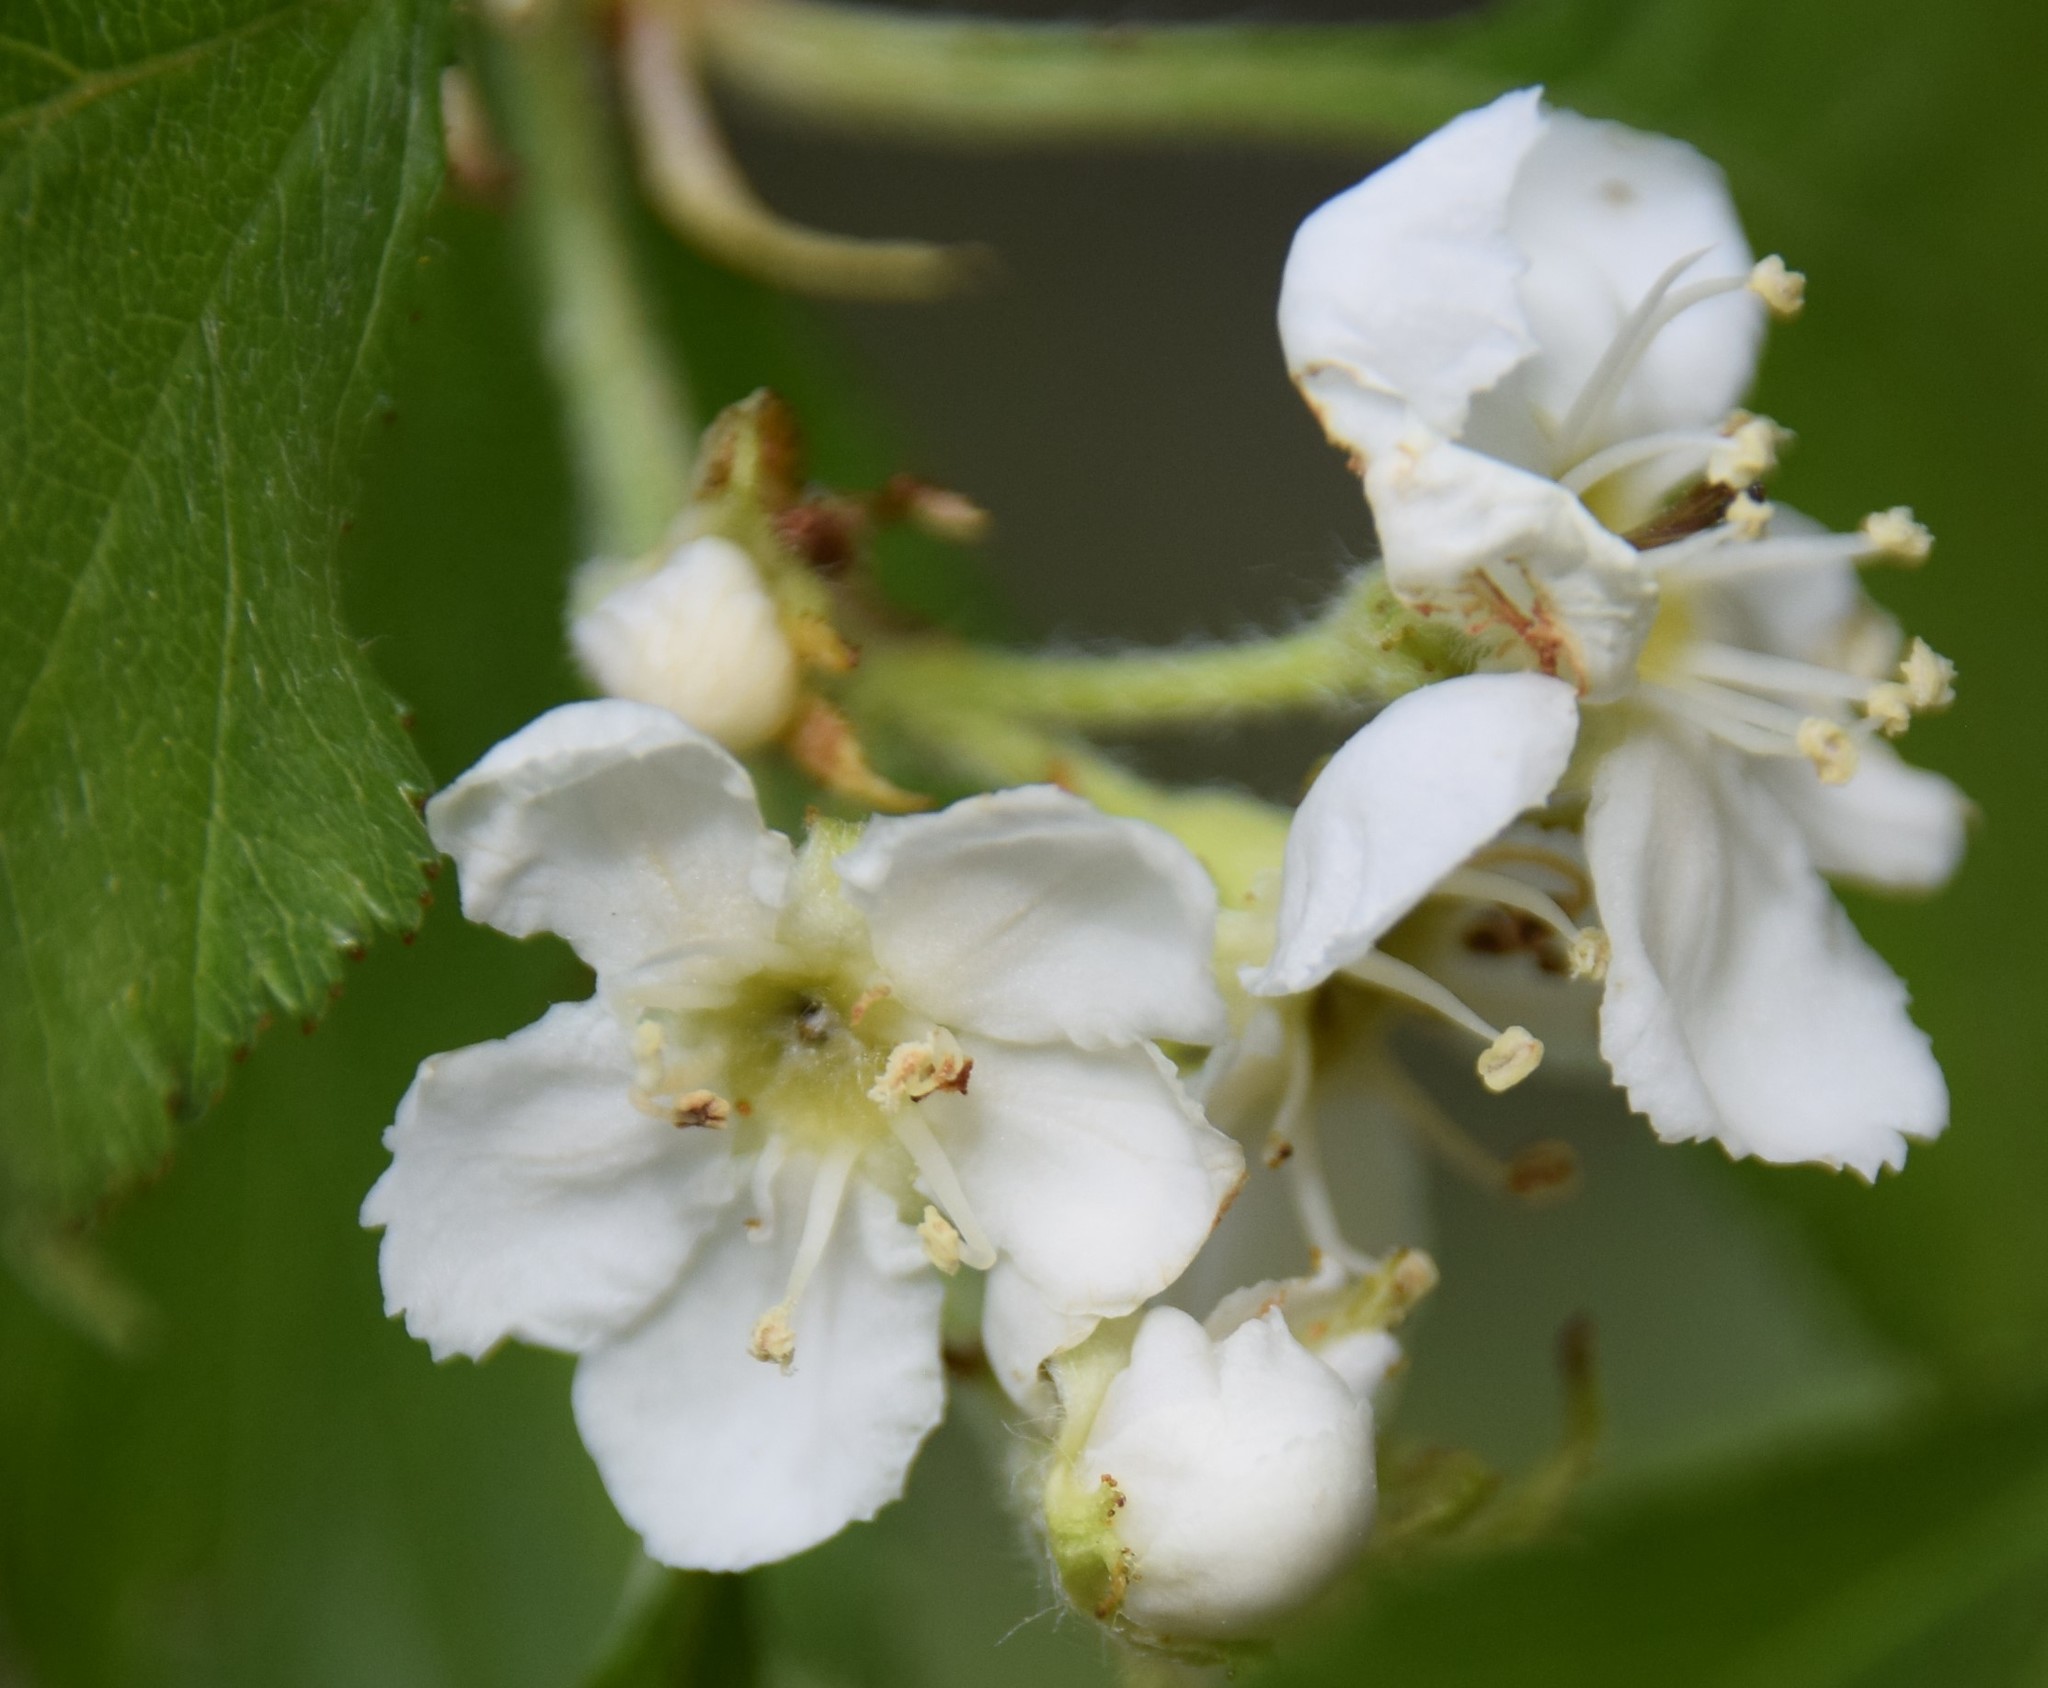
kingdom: Plantae
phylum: Tracheophyta
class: Magnoliopsida
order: Rosales
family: Rosaceae
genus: Crataegus
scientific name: Crataegus chrysocarpa
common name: Fire-berry hawthorn
